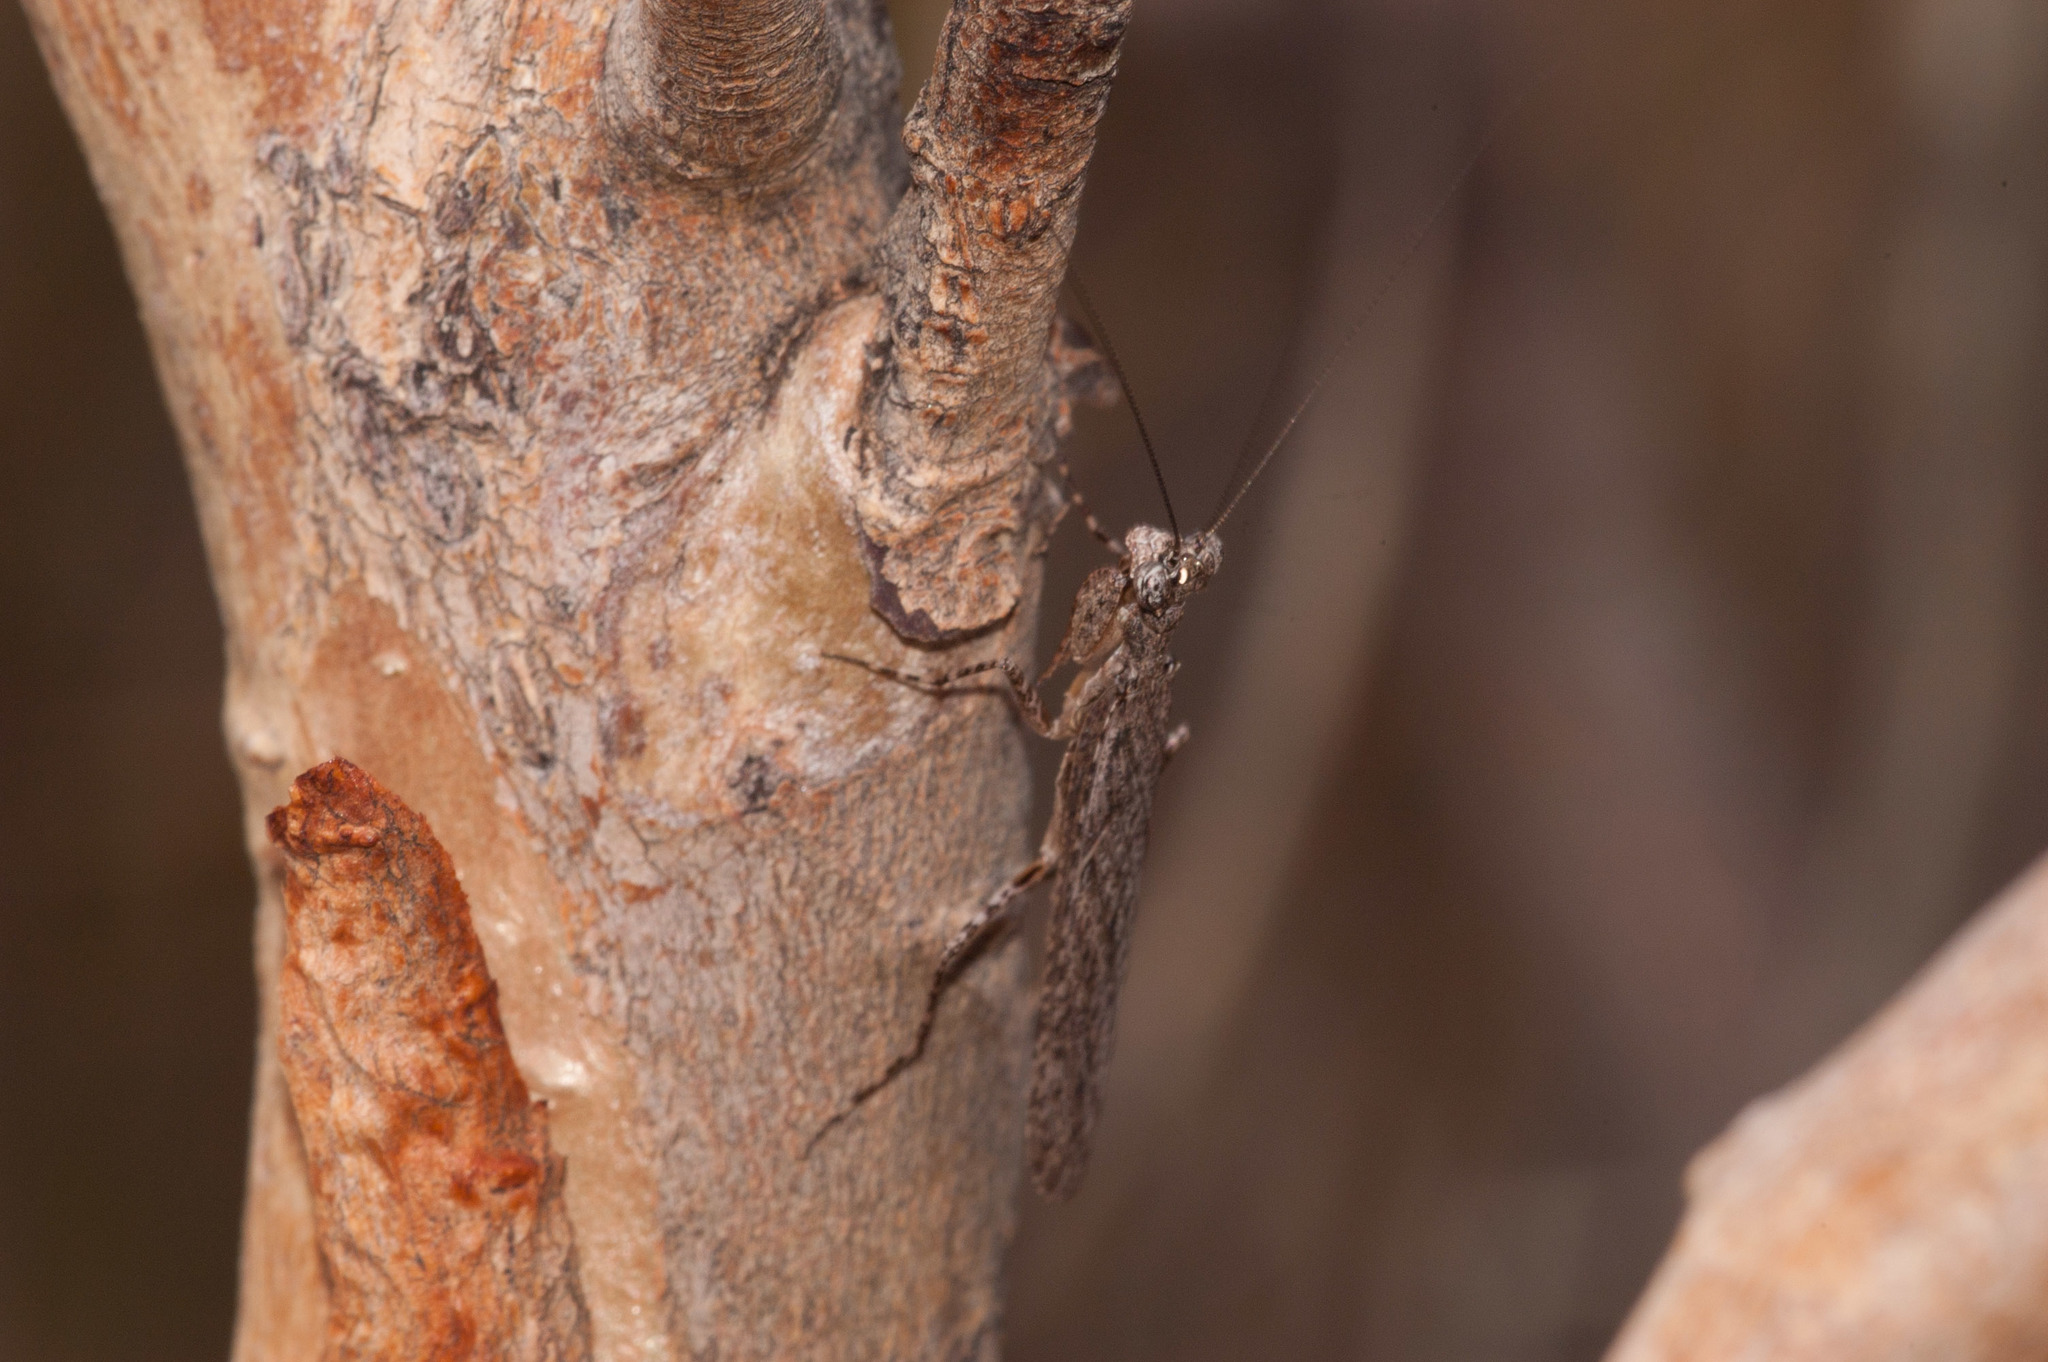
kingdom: Animalia
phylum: Arthropoda
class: Insecta
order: Mantodea
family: Nanomantidae
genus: Phthersigena
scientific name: Phthersigena
